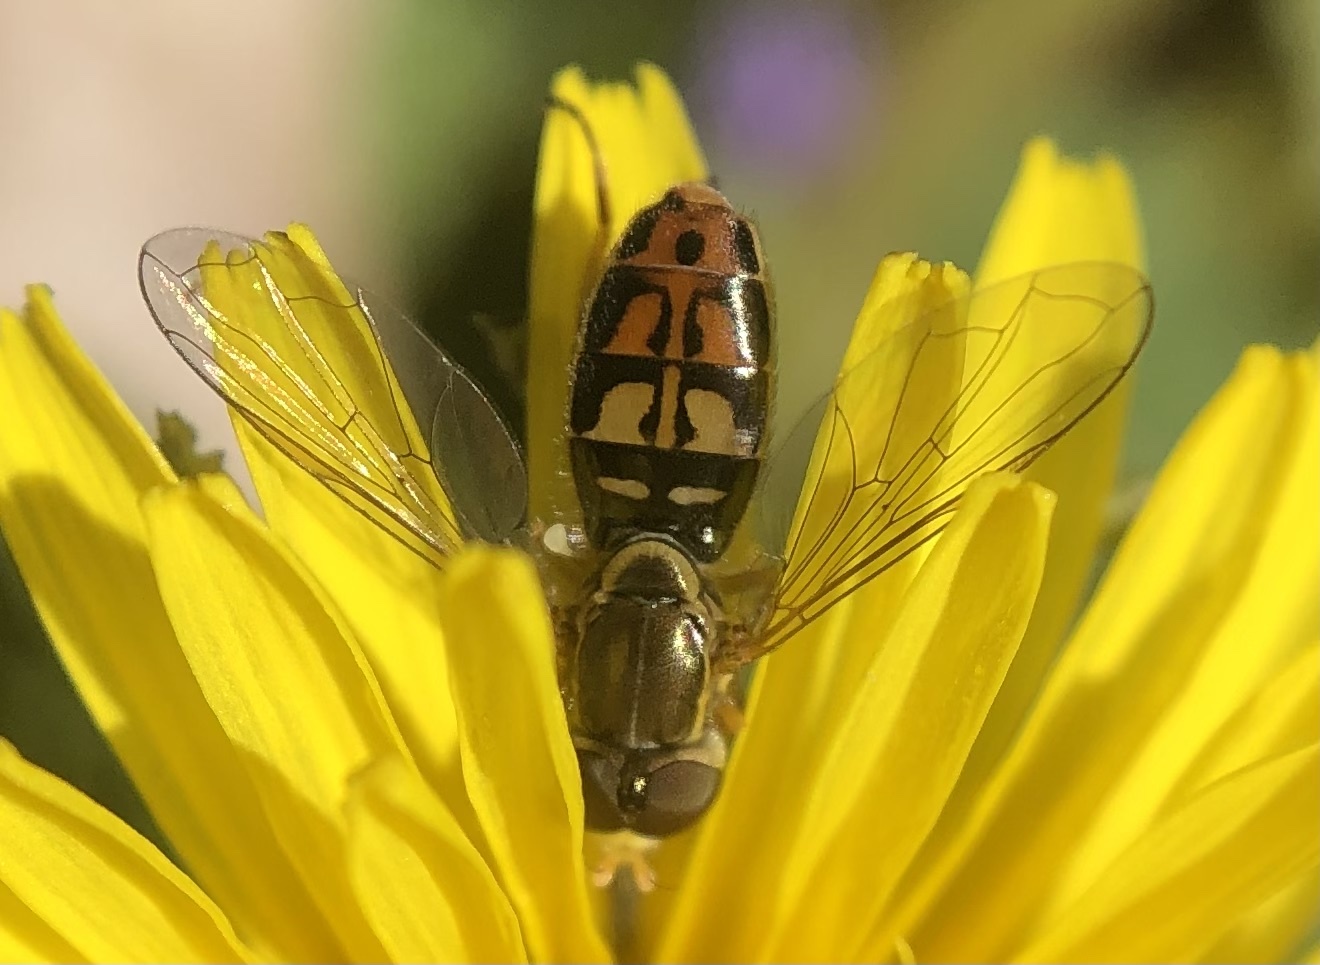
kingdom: Animalia
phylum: Arthropoda
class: Insecta
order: Diptera
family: Syrphidae
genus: Toxomerus
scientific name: Toxomerus marginatus
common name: Syrphid fly
